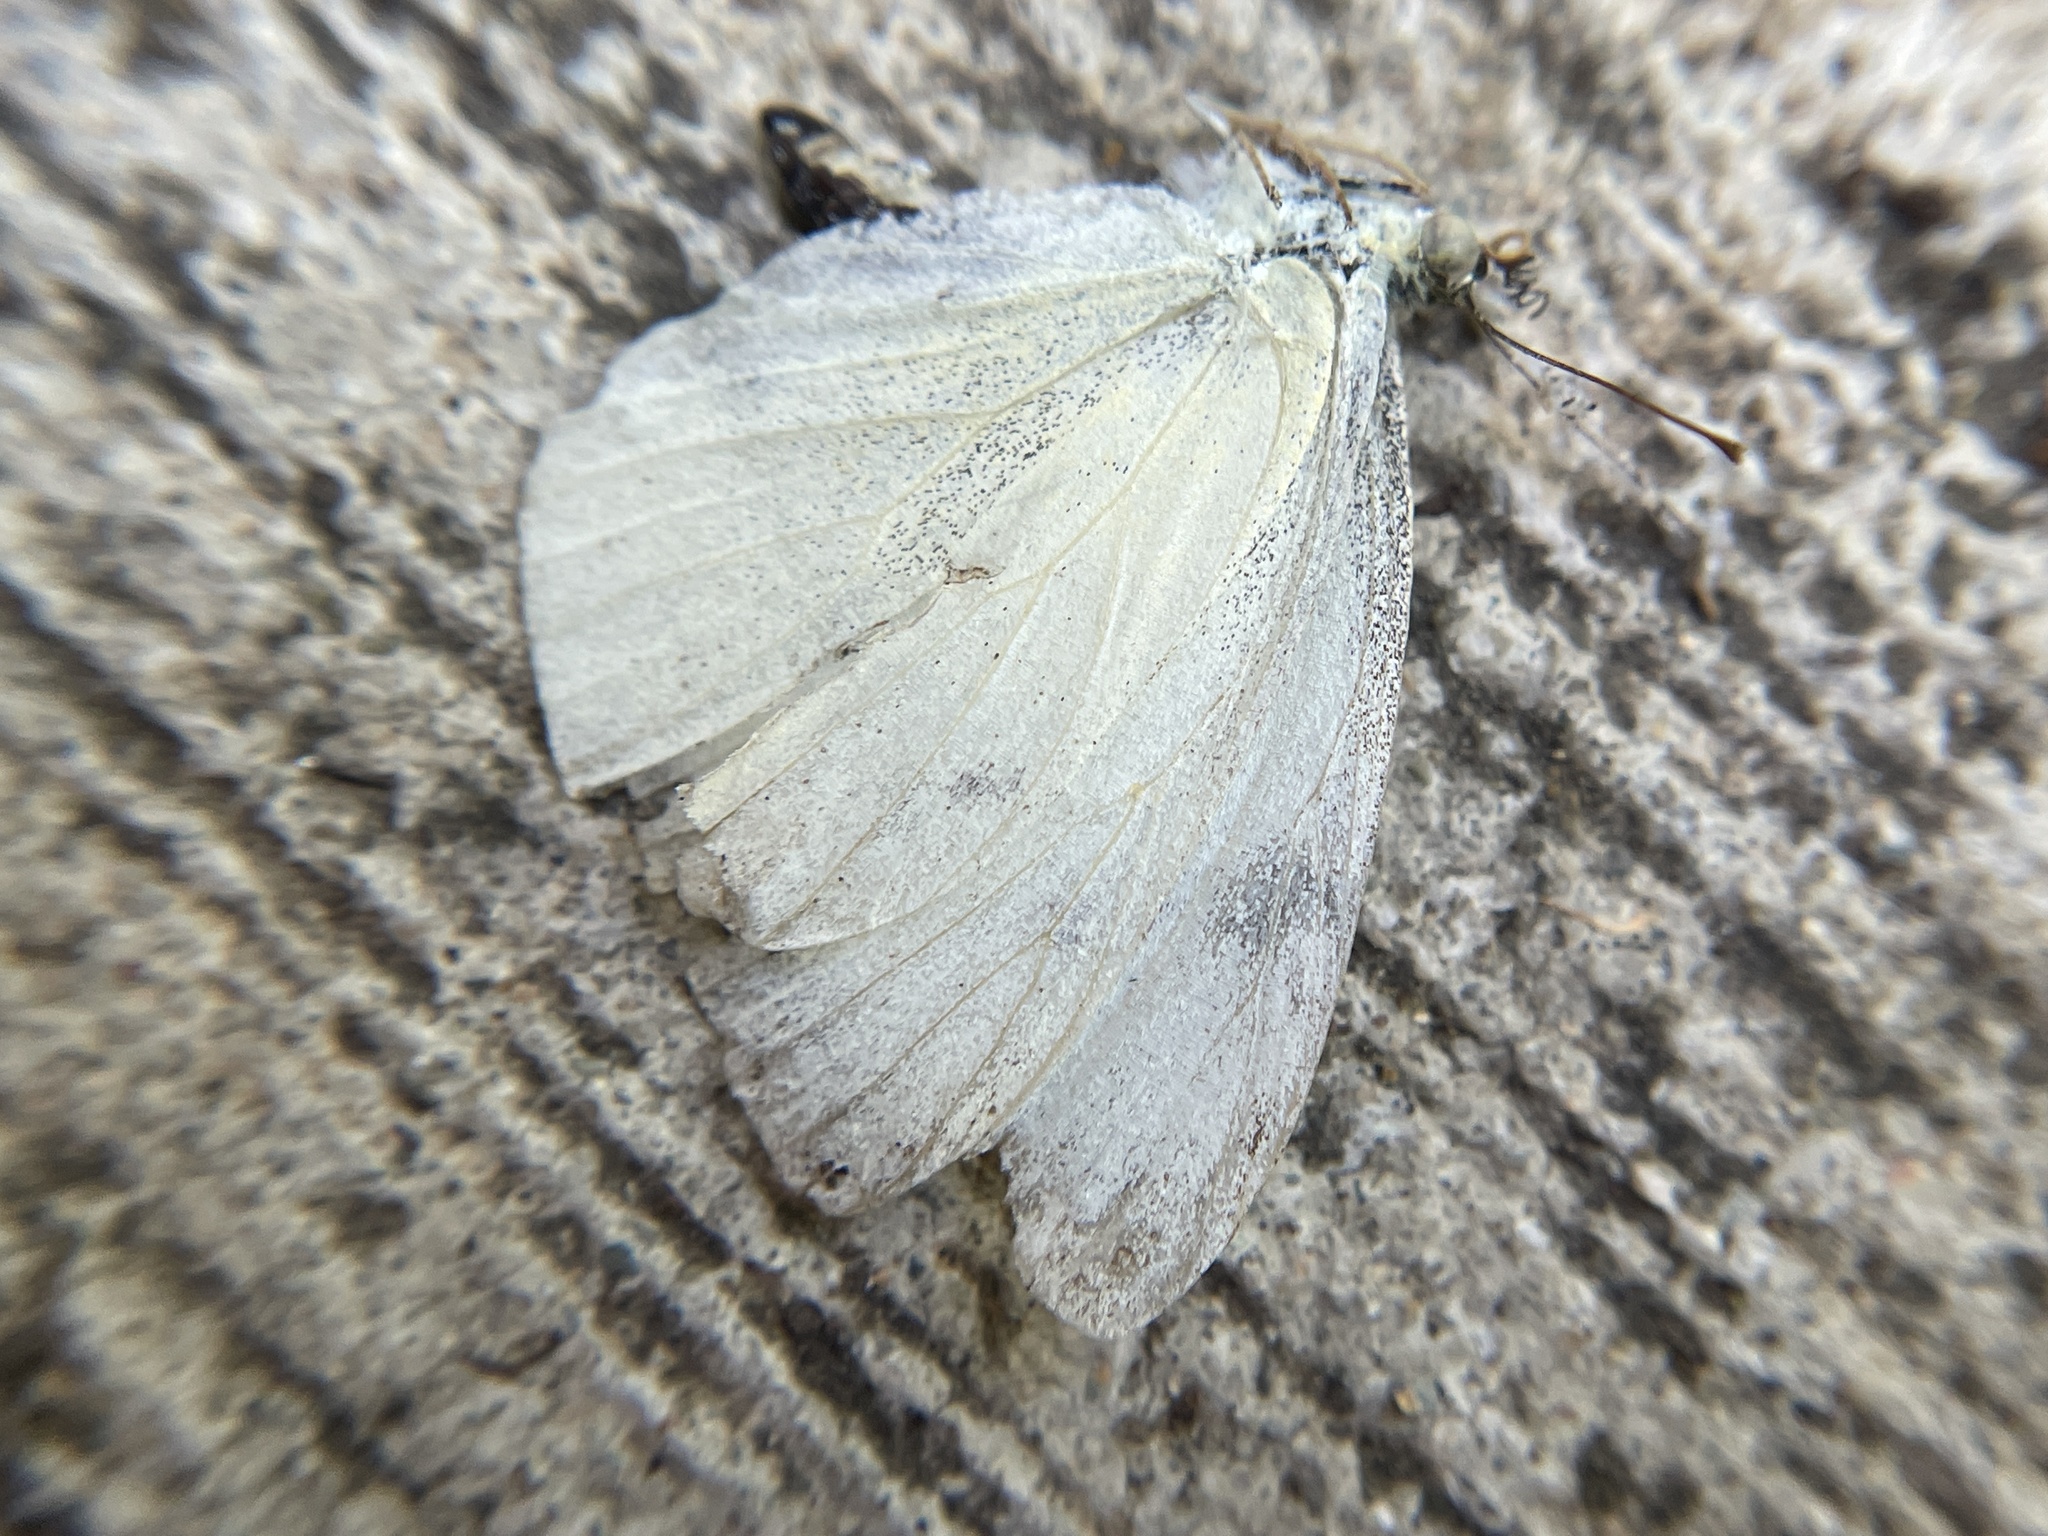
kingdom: Animalia
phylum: Arthropoda
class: Insecta
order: Lepidoptera
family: Pieridae
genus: Pieris
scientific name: Pieris rapae
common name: Small white
